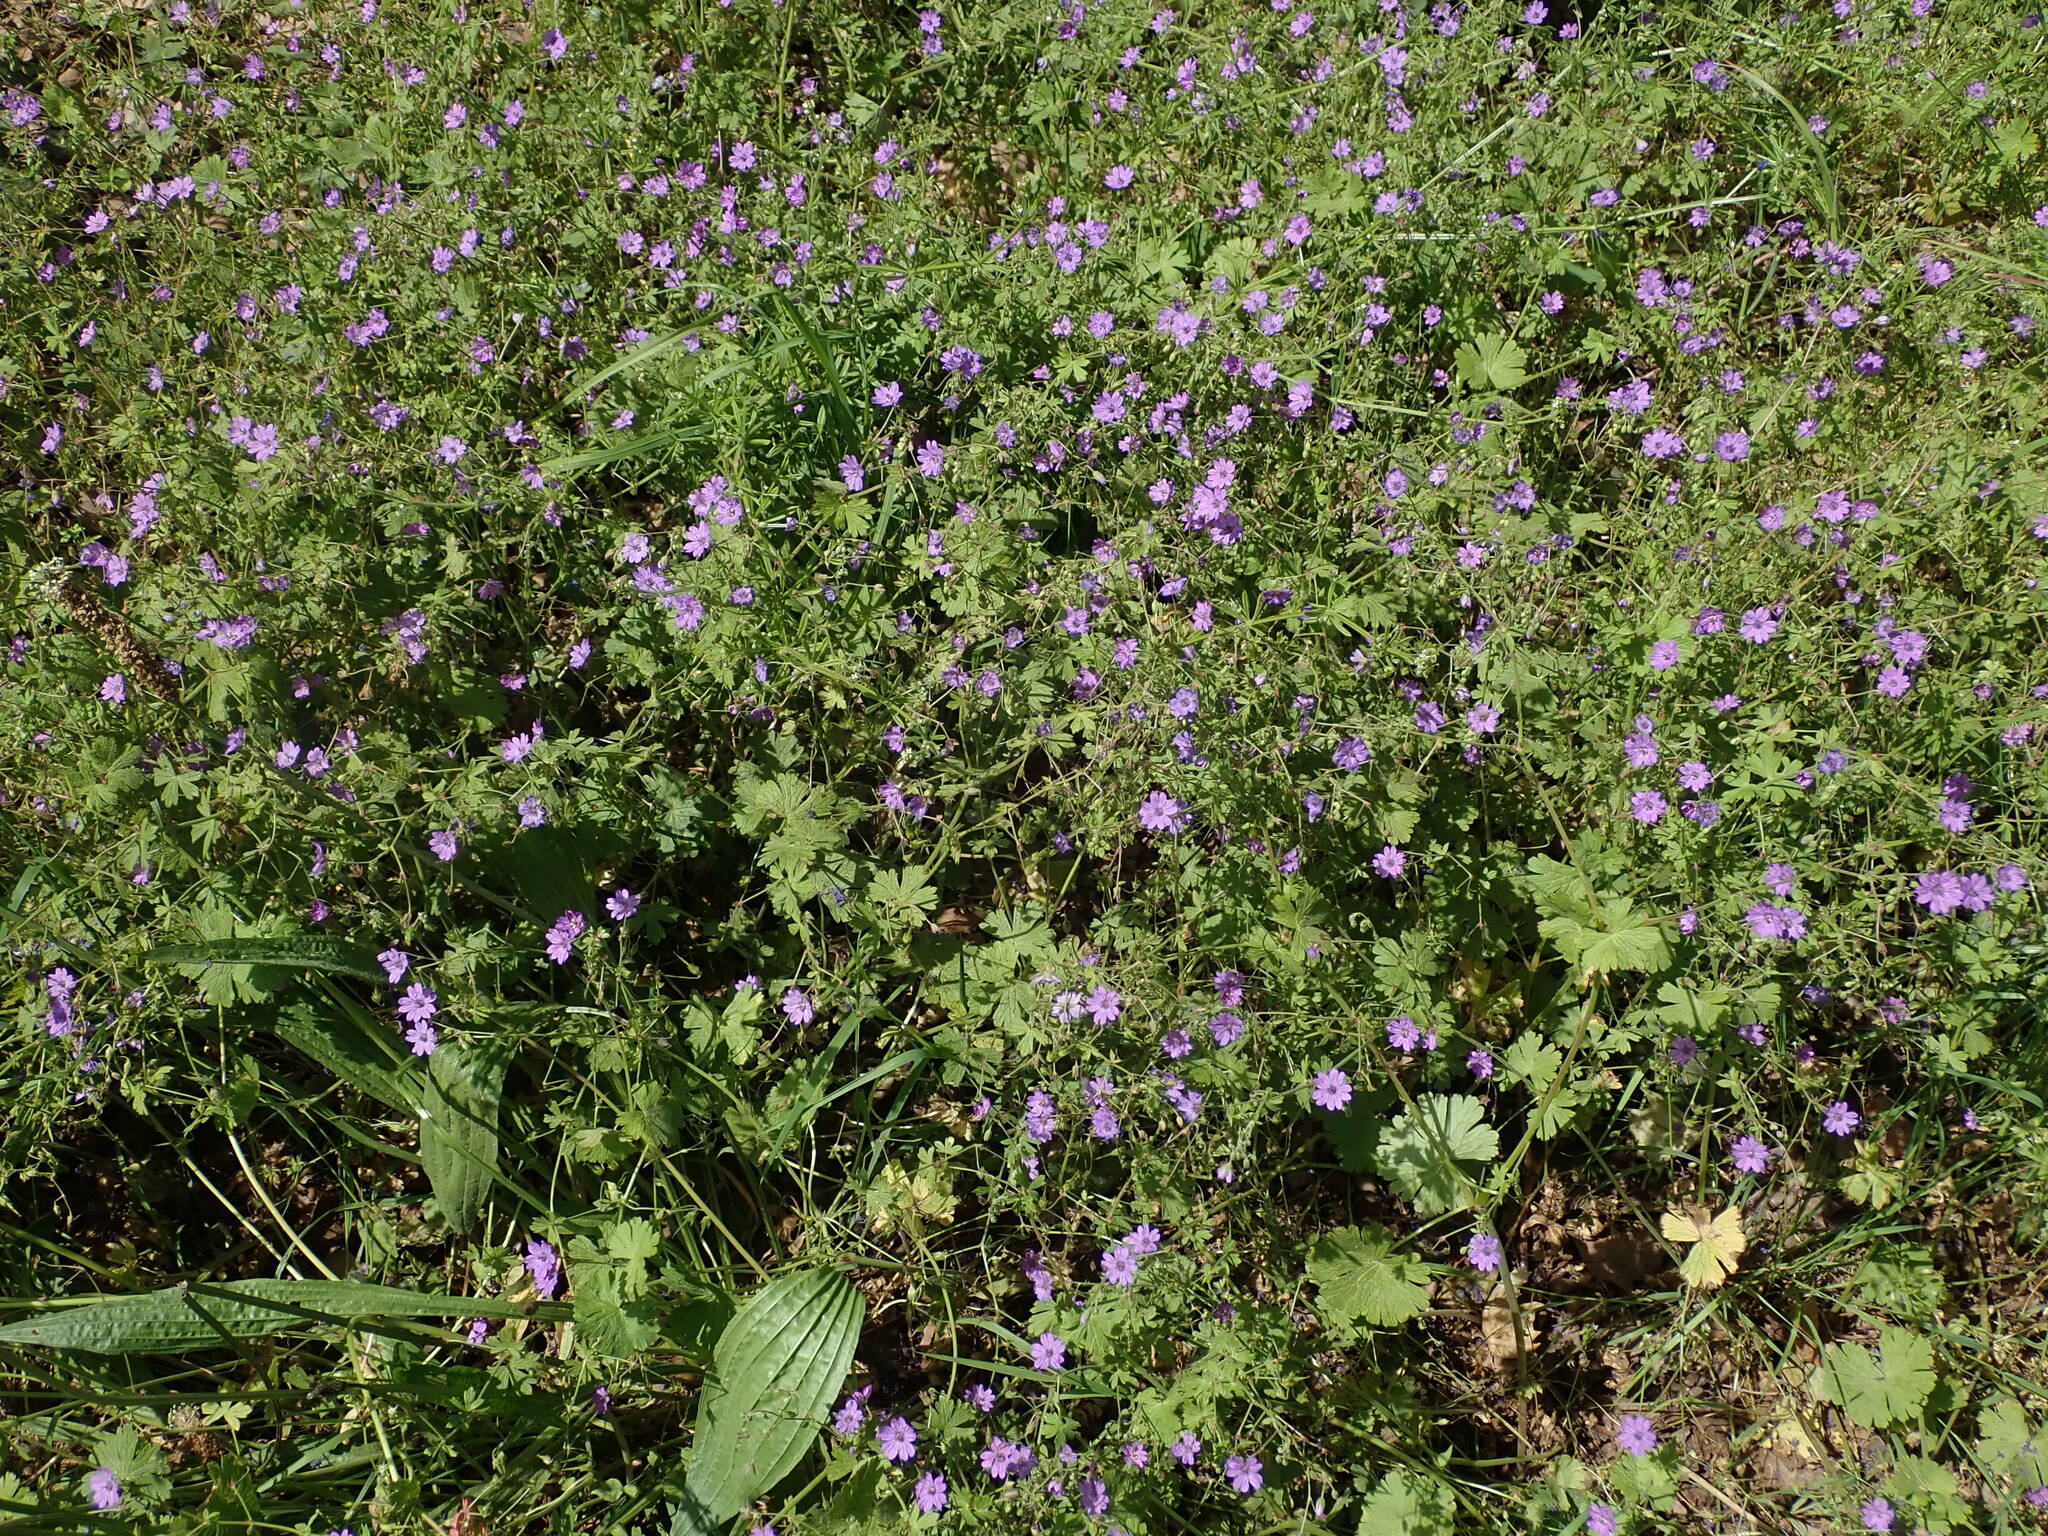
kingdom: Plantae
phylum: Tracheophyta
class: Magnoliopsida
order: Geraniales
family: Geraniaceae
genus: Geranium
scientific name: Geranium pyrenaicum
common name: Hedgerow crane's-bill
